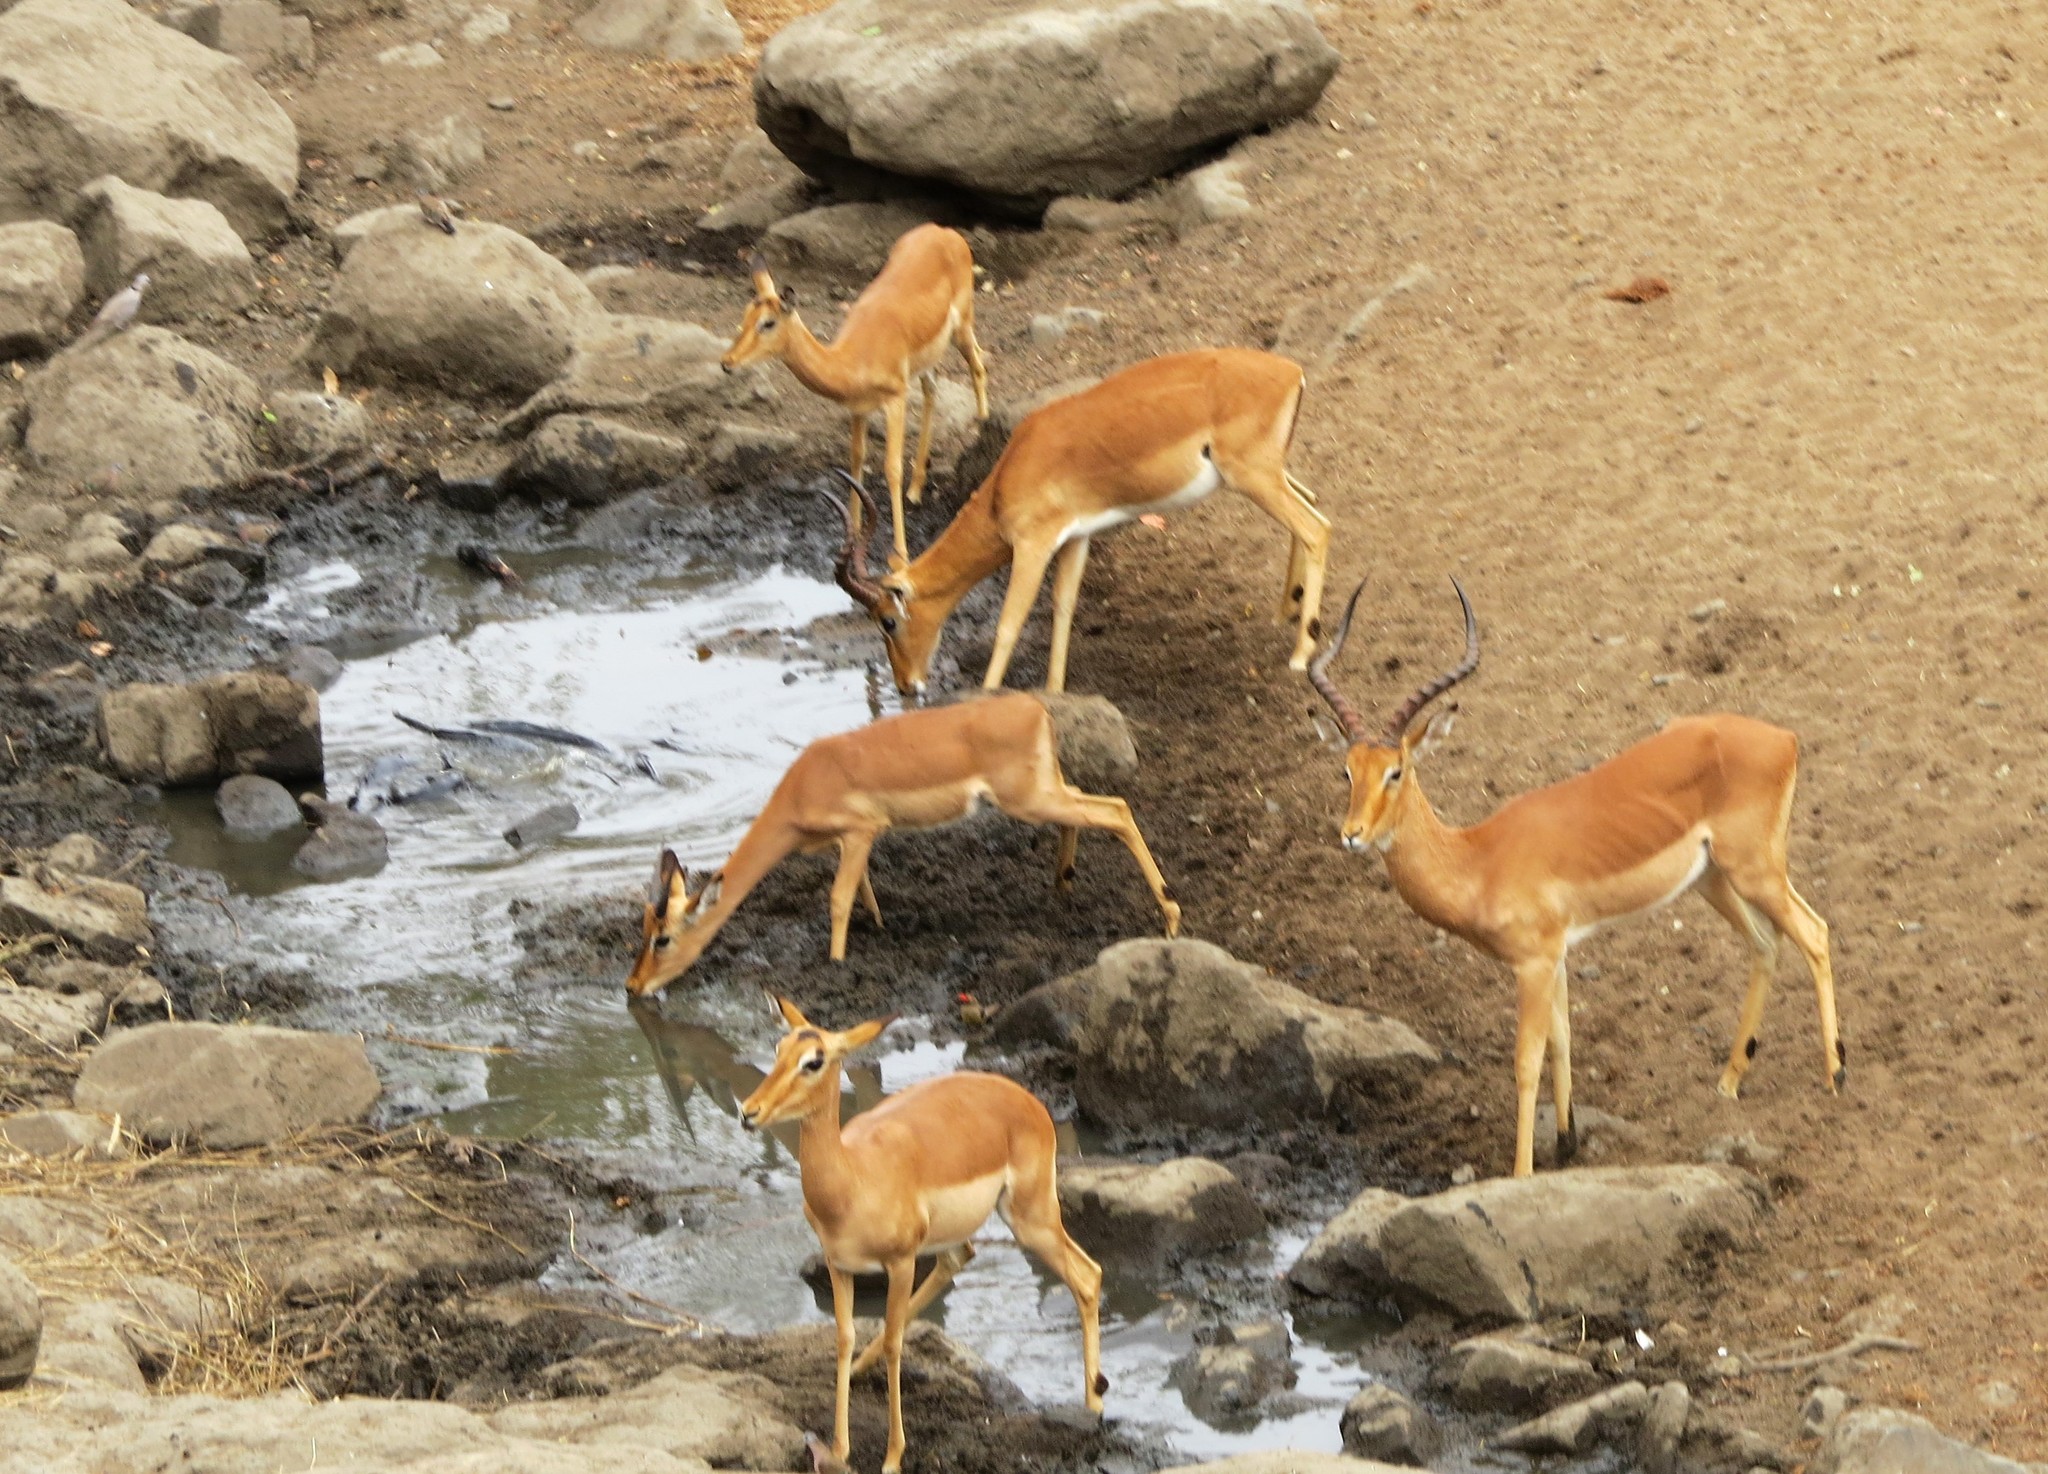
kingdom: Animalia
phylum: Chordata
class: Mammalia
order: Artiodactyla
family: Bovidae
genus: Aepyceros
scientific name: Aepyceros melampus
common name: Impala
